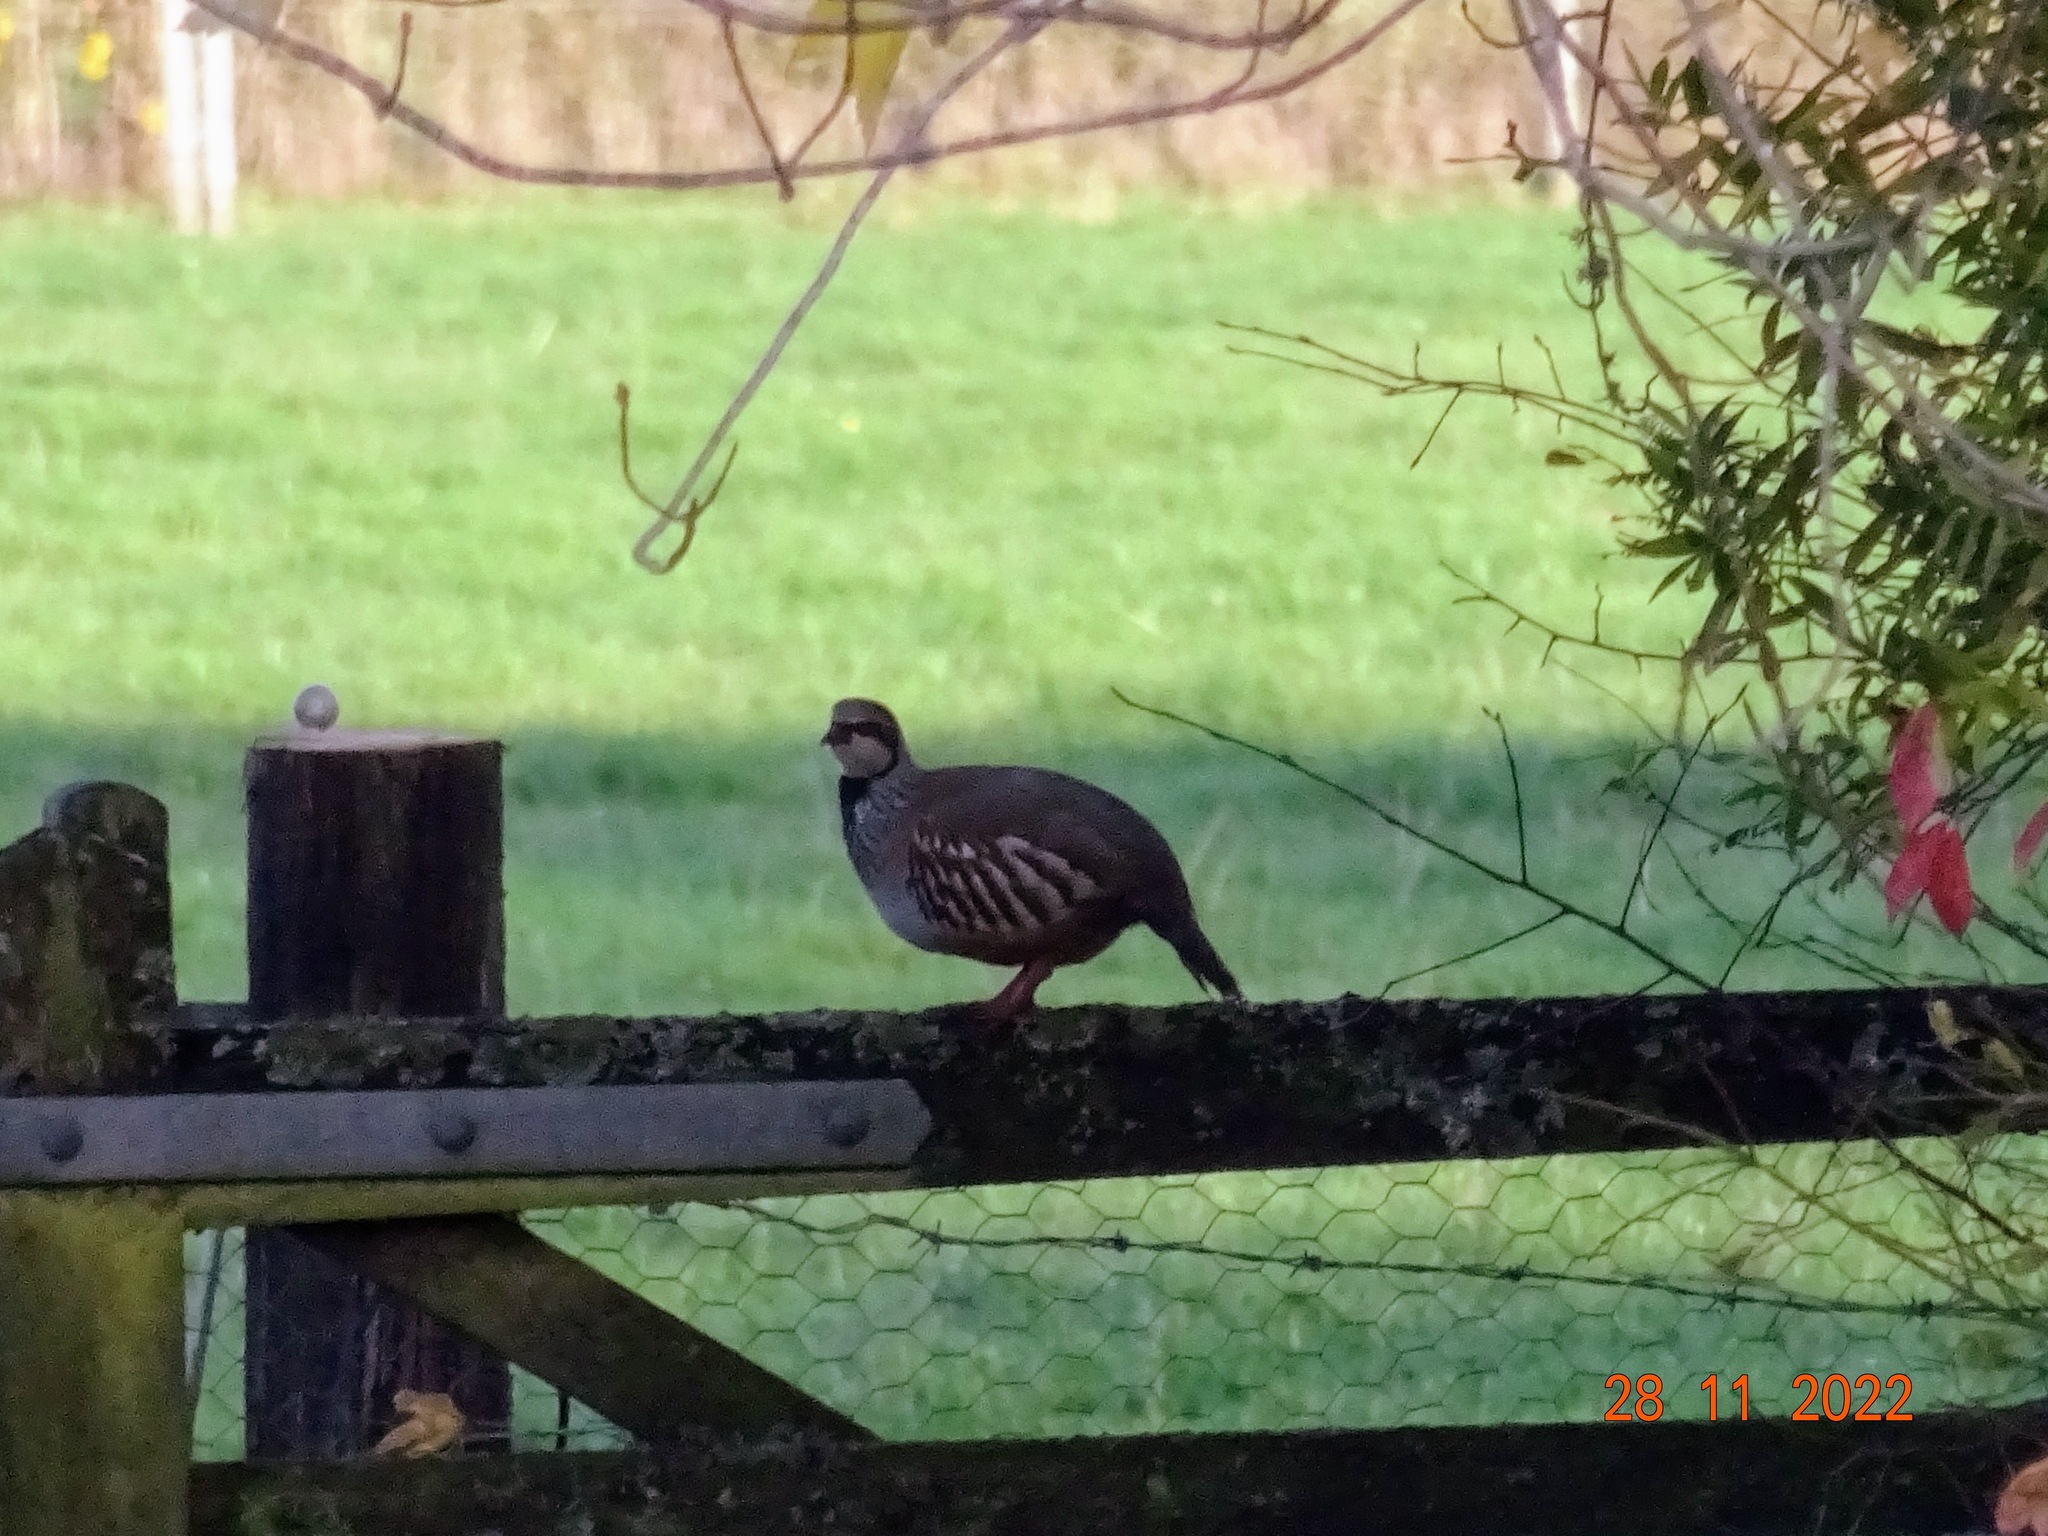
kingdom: Animalia
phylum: Chordata
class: Aves
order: Galliformes
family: Phasianidae
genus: Alectoris
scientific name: Alectoris rufa
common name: Red-legged partridge
